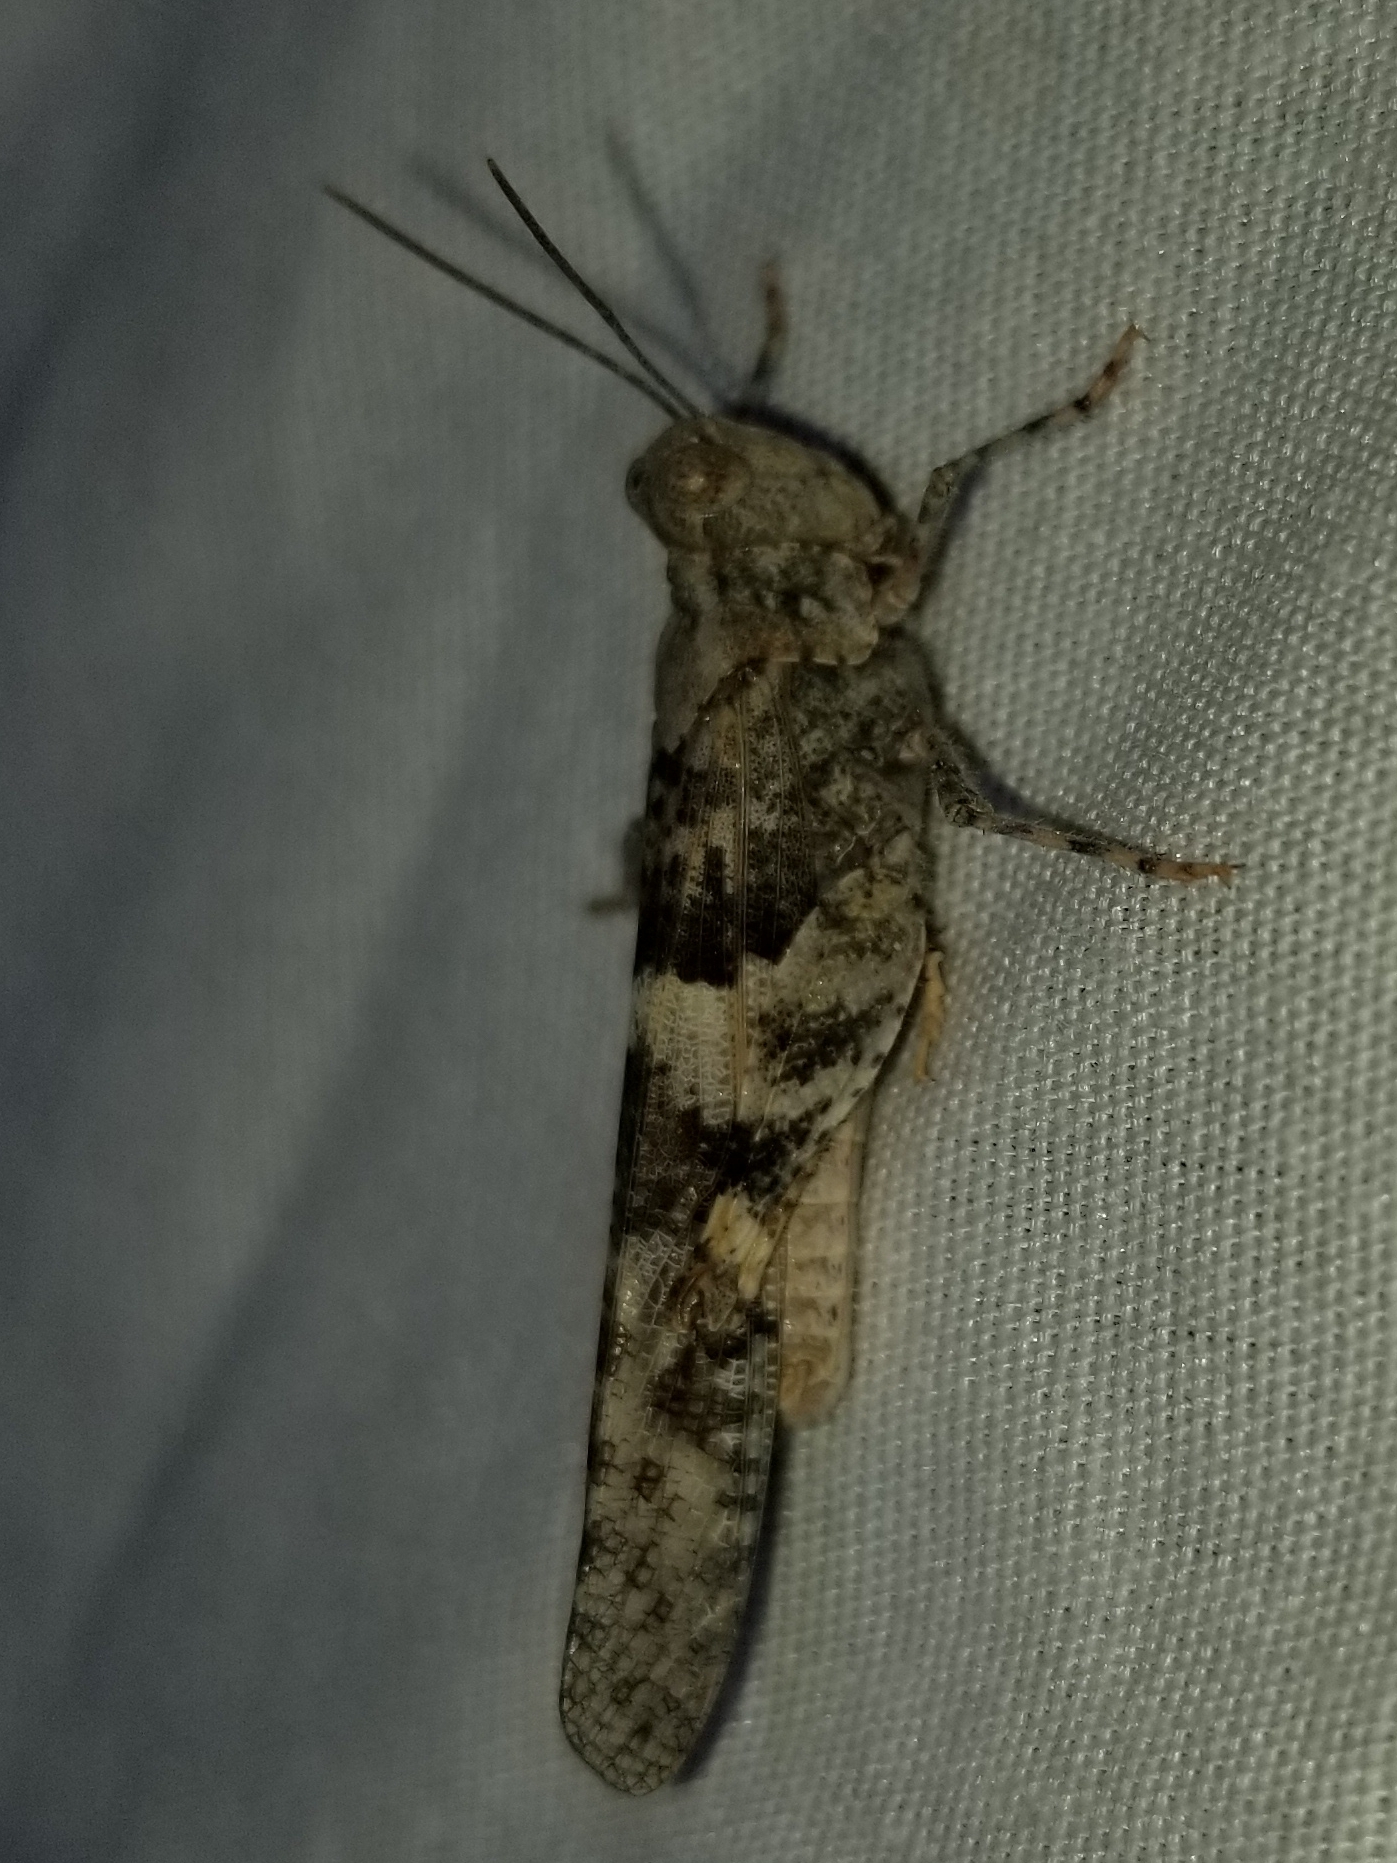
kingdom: Animalia
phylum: Arthropoda
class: Insecta
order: Orthoptera
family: Acrididae
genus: Trimerotropis
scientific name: Trimerotropis pallidipennis
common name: Pallid-winged grasshopper
